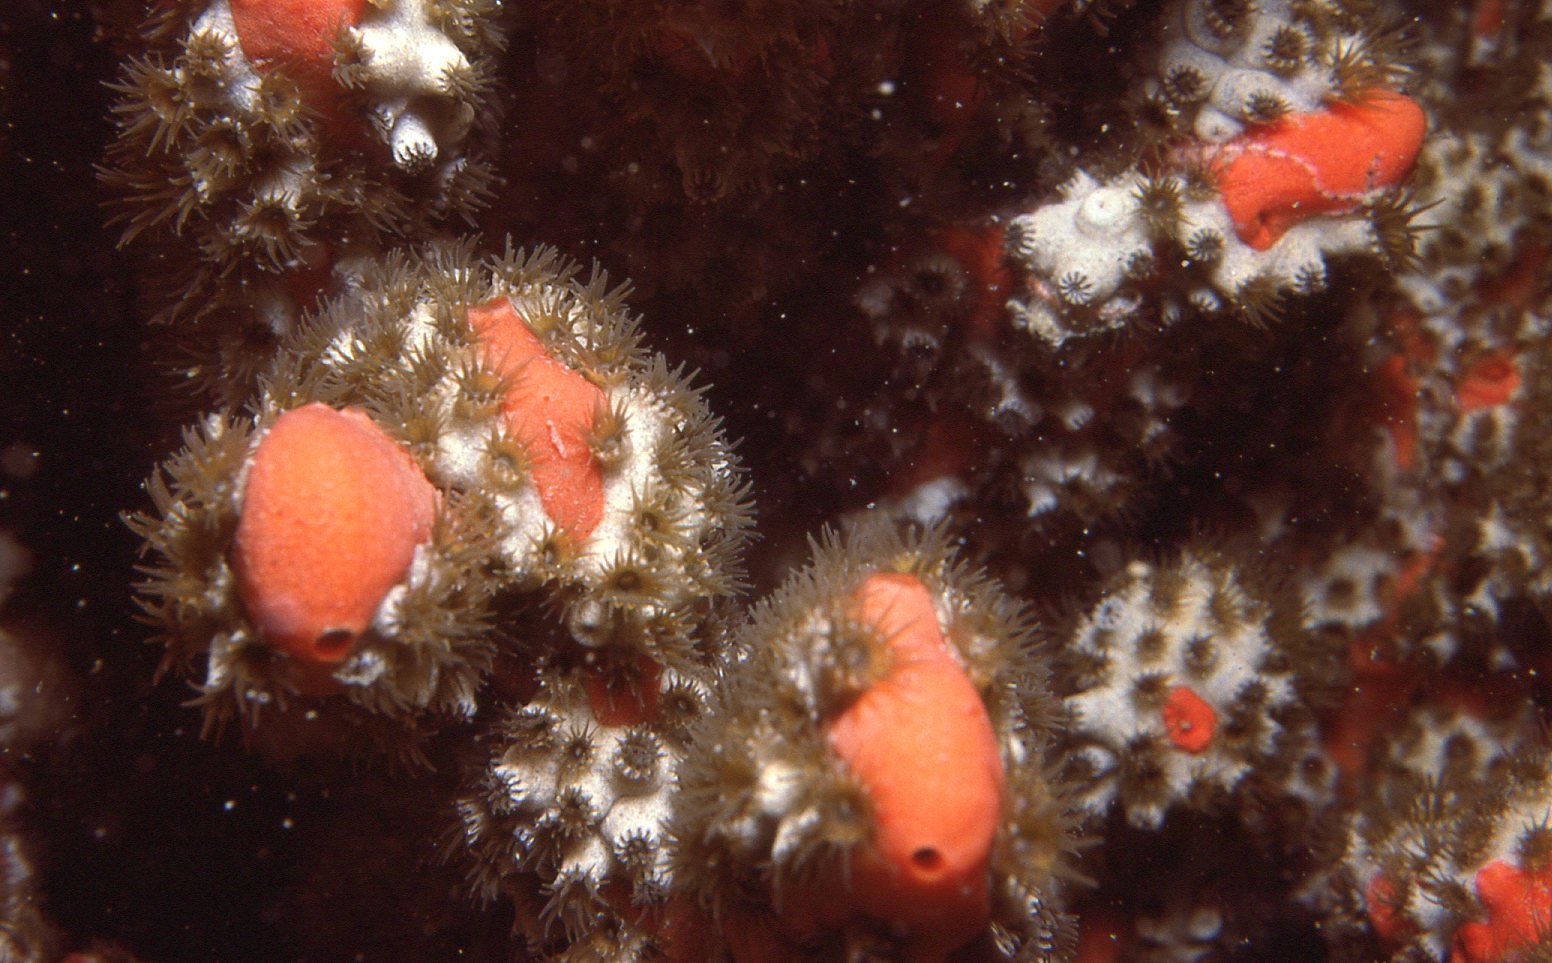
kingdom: Animalia
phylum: Cnidaria
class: Anthozoa
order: Zoantharia
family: Epizoanthidae
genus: Epizoanthus
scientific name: Epizoanthus sabulosus
